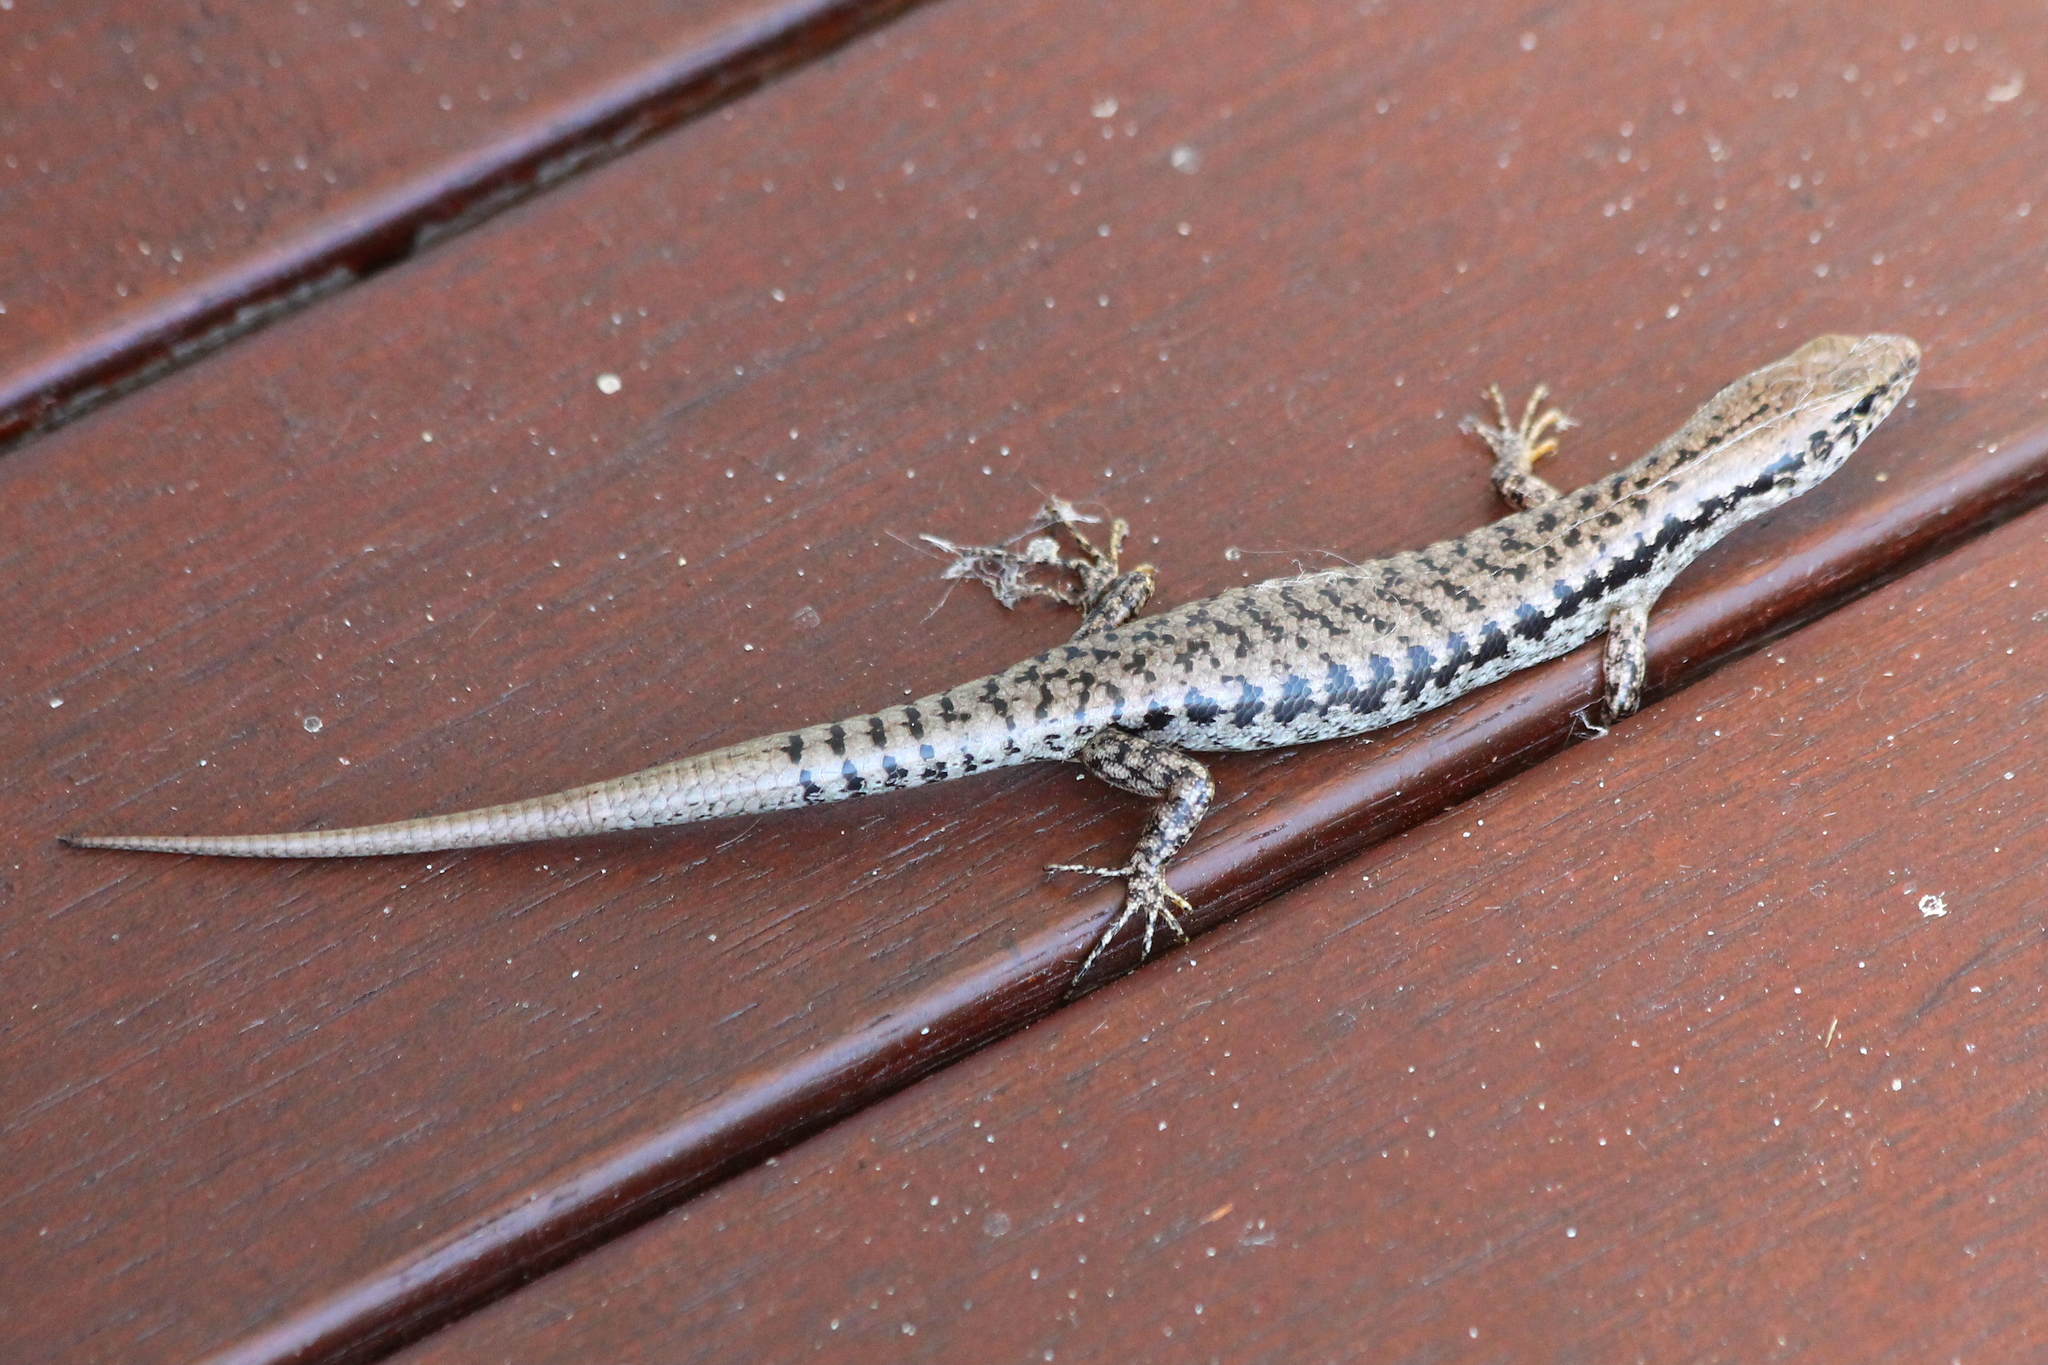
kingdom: Animalia
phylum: Chordata
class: Squamata
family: Scincidae
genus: Concinnia
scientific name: Concinnia tenuis
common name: Bar-sided forest-skink
